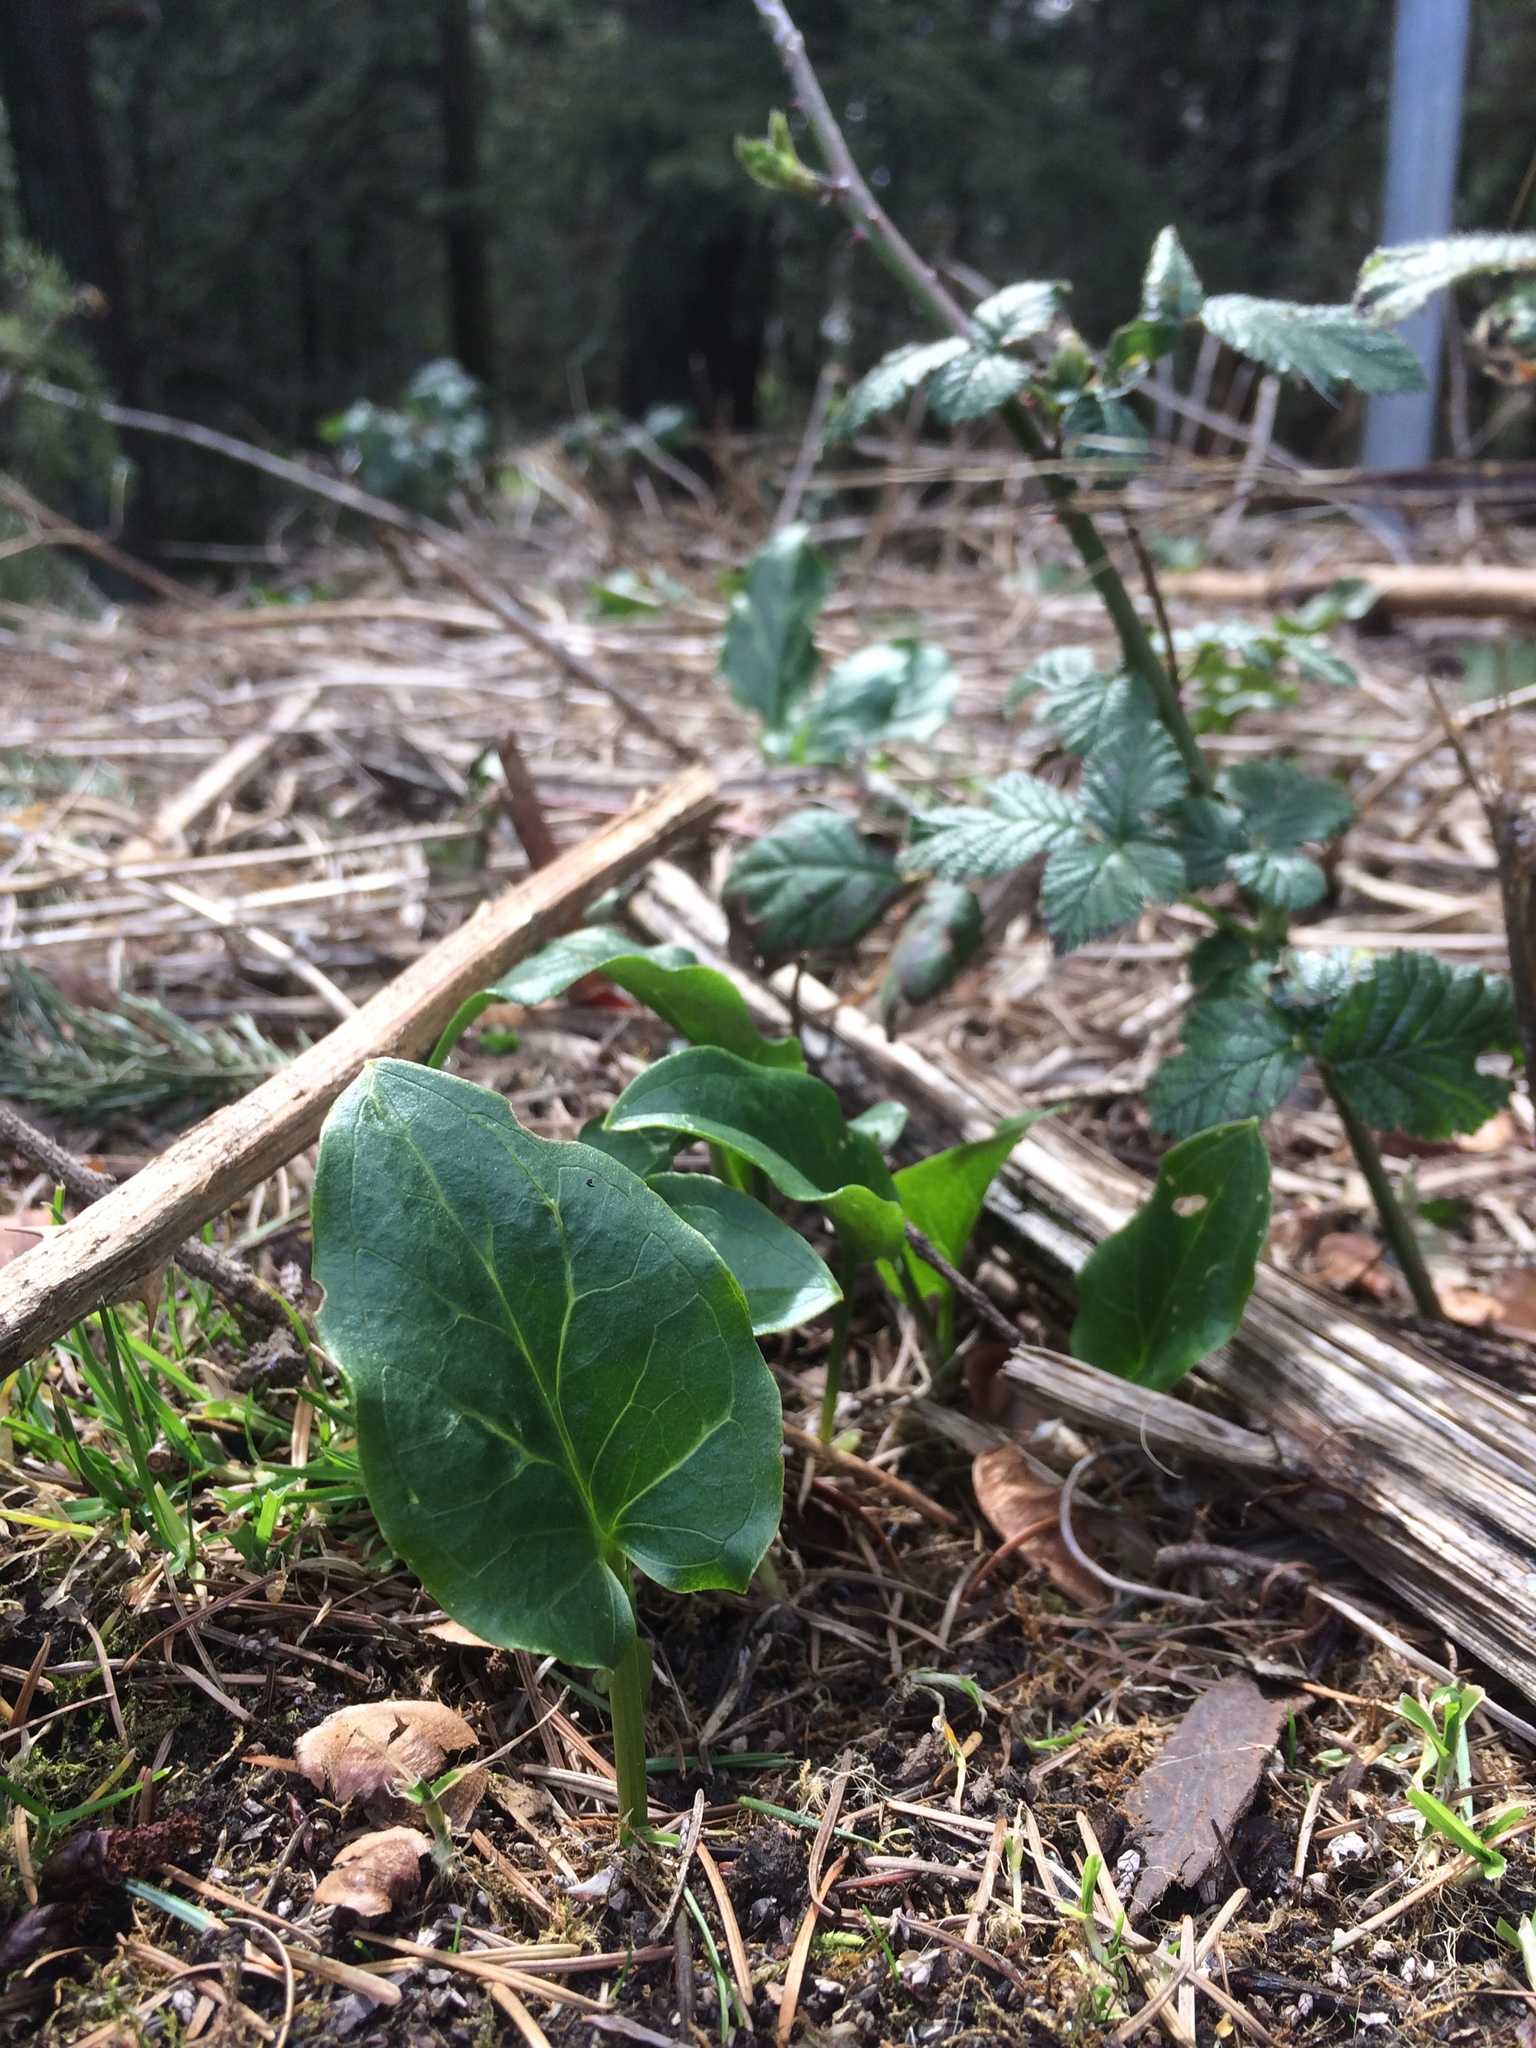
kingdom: Plantae
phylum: Tracheophyta
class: Liliopsida
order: Alismatales
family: Araceae
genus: Arum
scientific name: Arum italicum
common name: Italian lords-and-ladies
